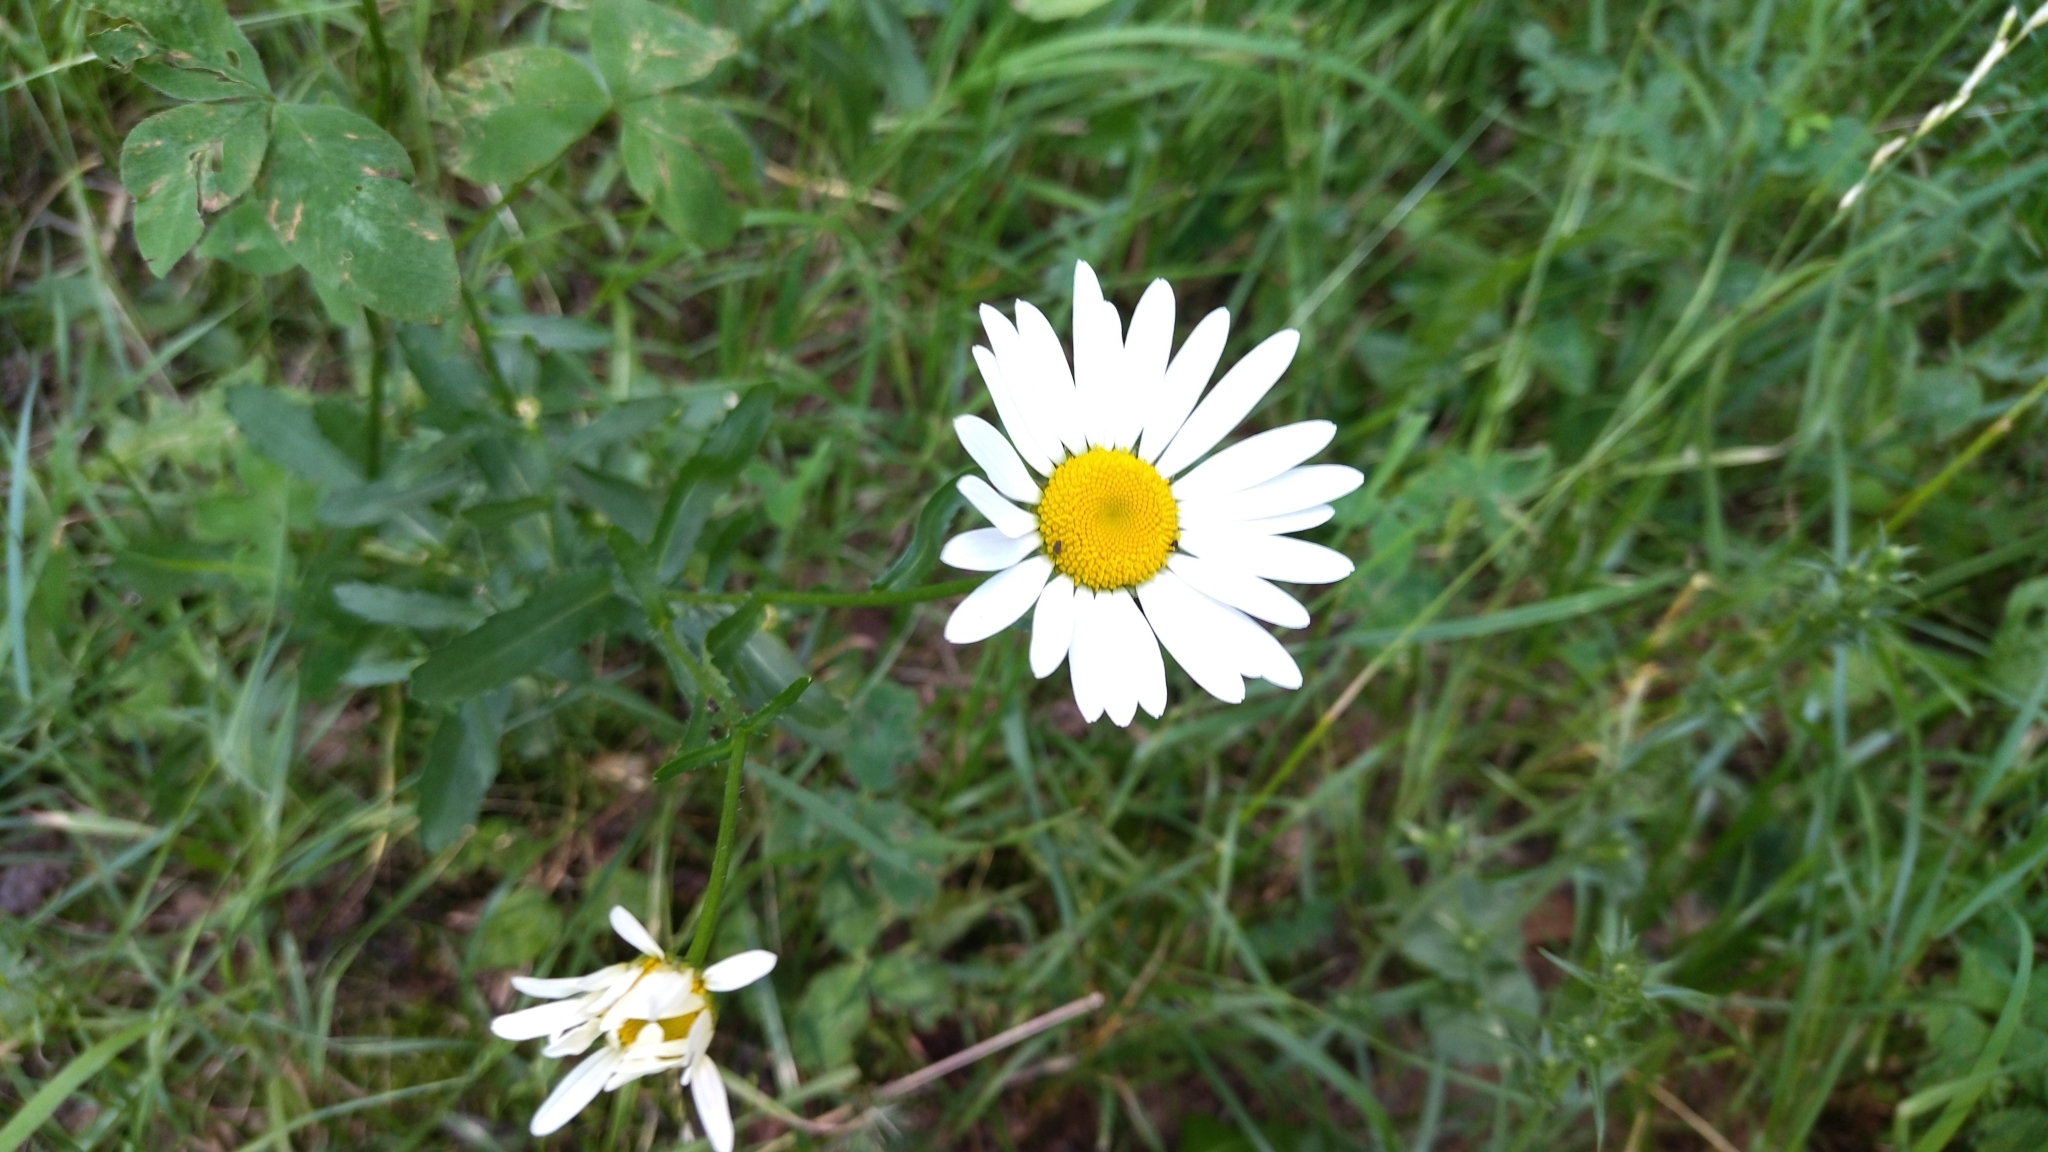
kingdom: Plantae
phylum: Tracheophyta
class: Magnoliopsida
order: Asterales
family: Asteraceae
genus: Leucanthemum
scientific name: Leucanthemum vulgare
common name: Oxeye daisy
